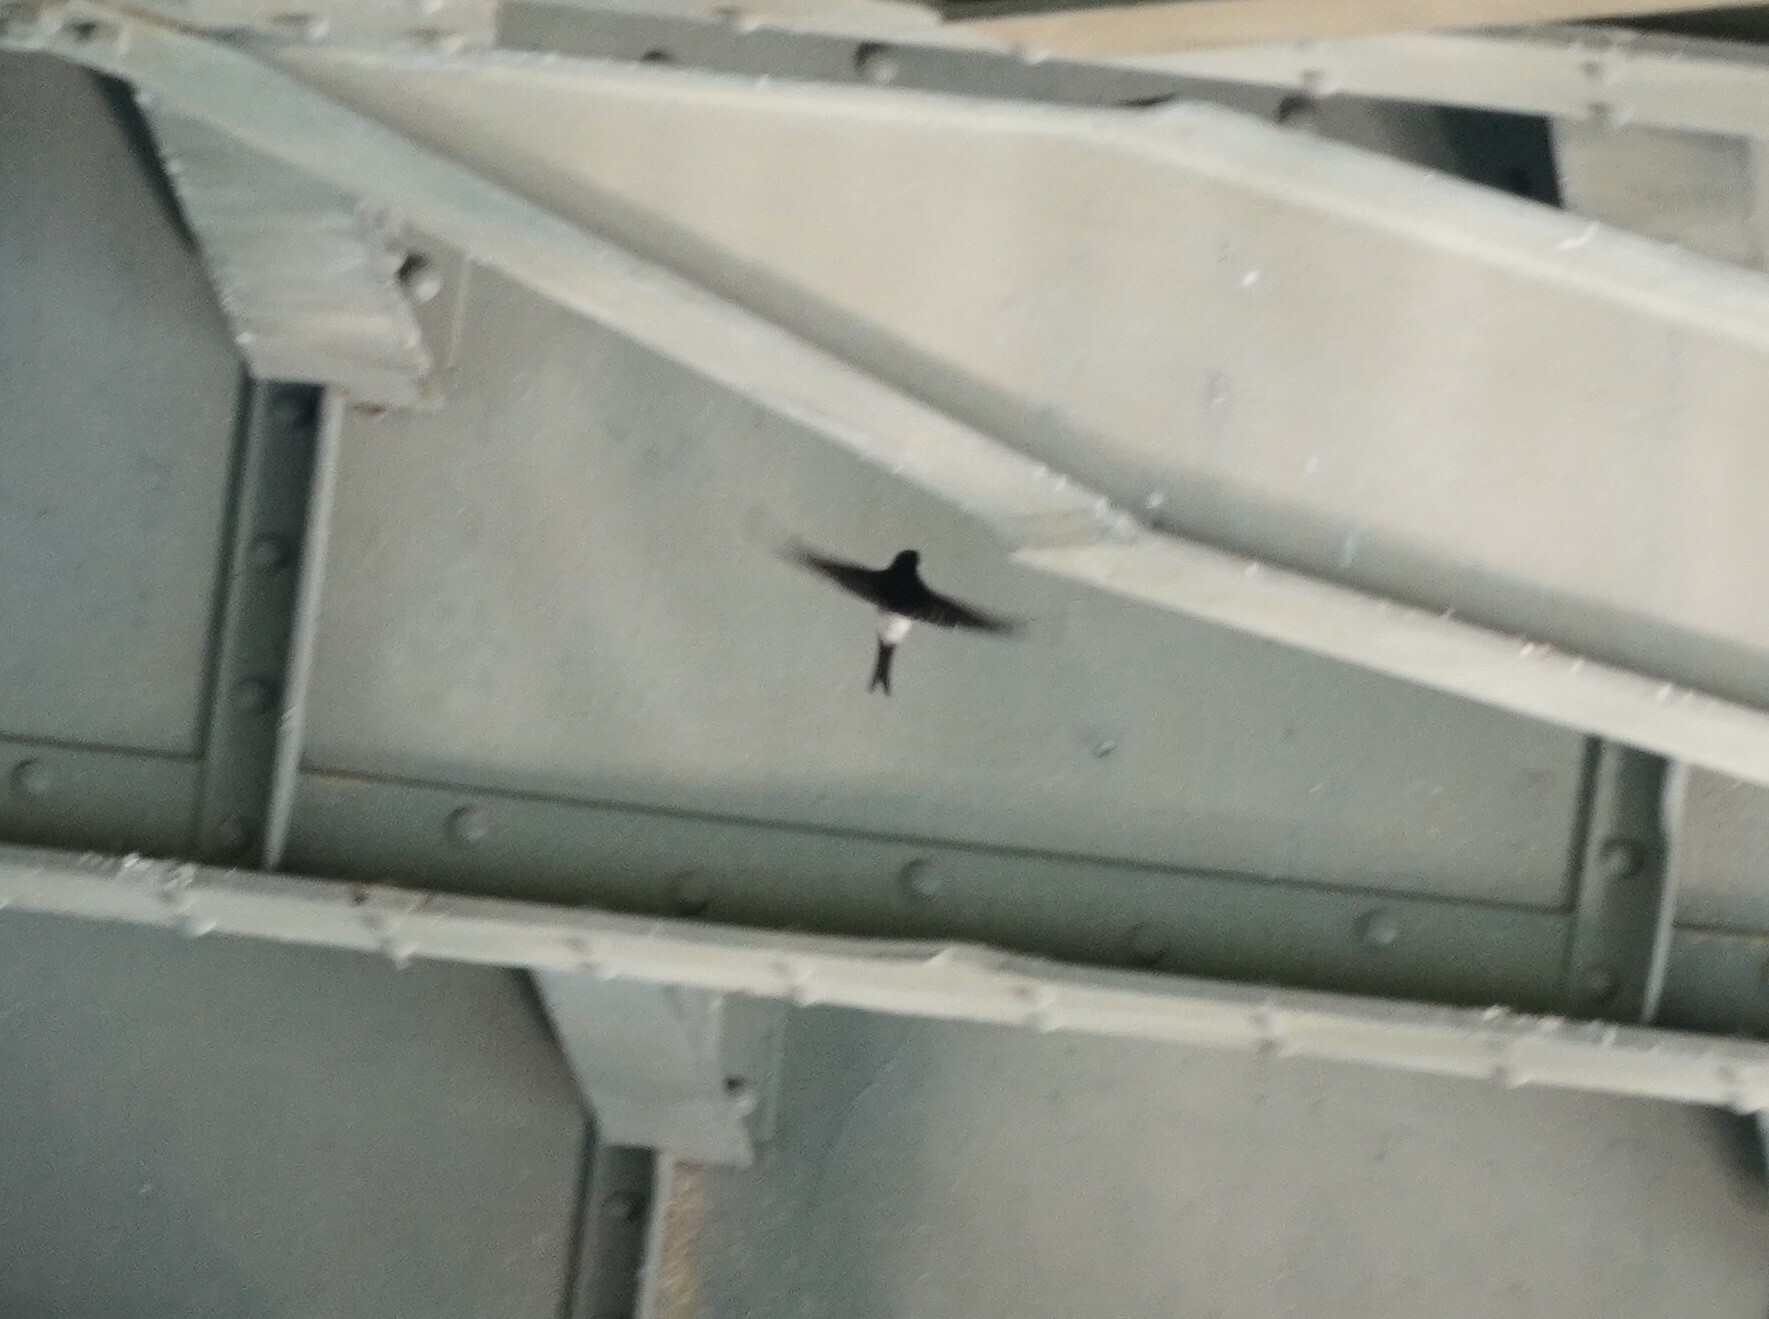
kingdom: Animalia
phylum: Chordata
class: Aves
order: Passeriformes
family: Hirundinidae
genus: Delichon
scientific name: Delichon urbicum
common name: Common house martin
